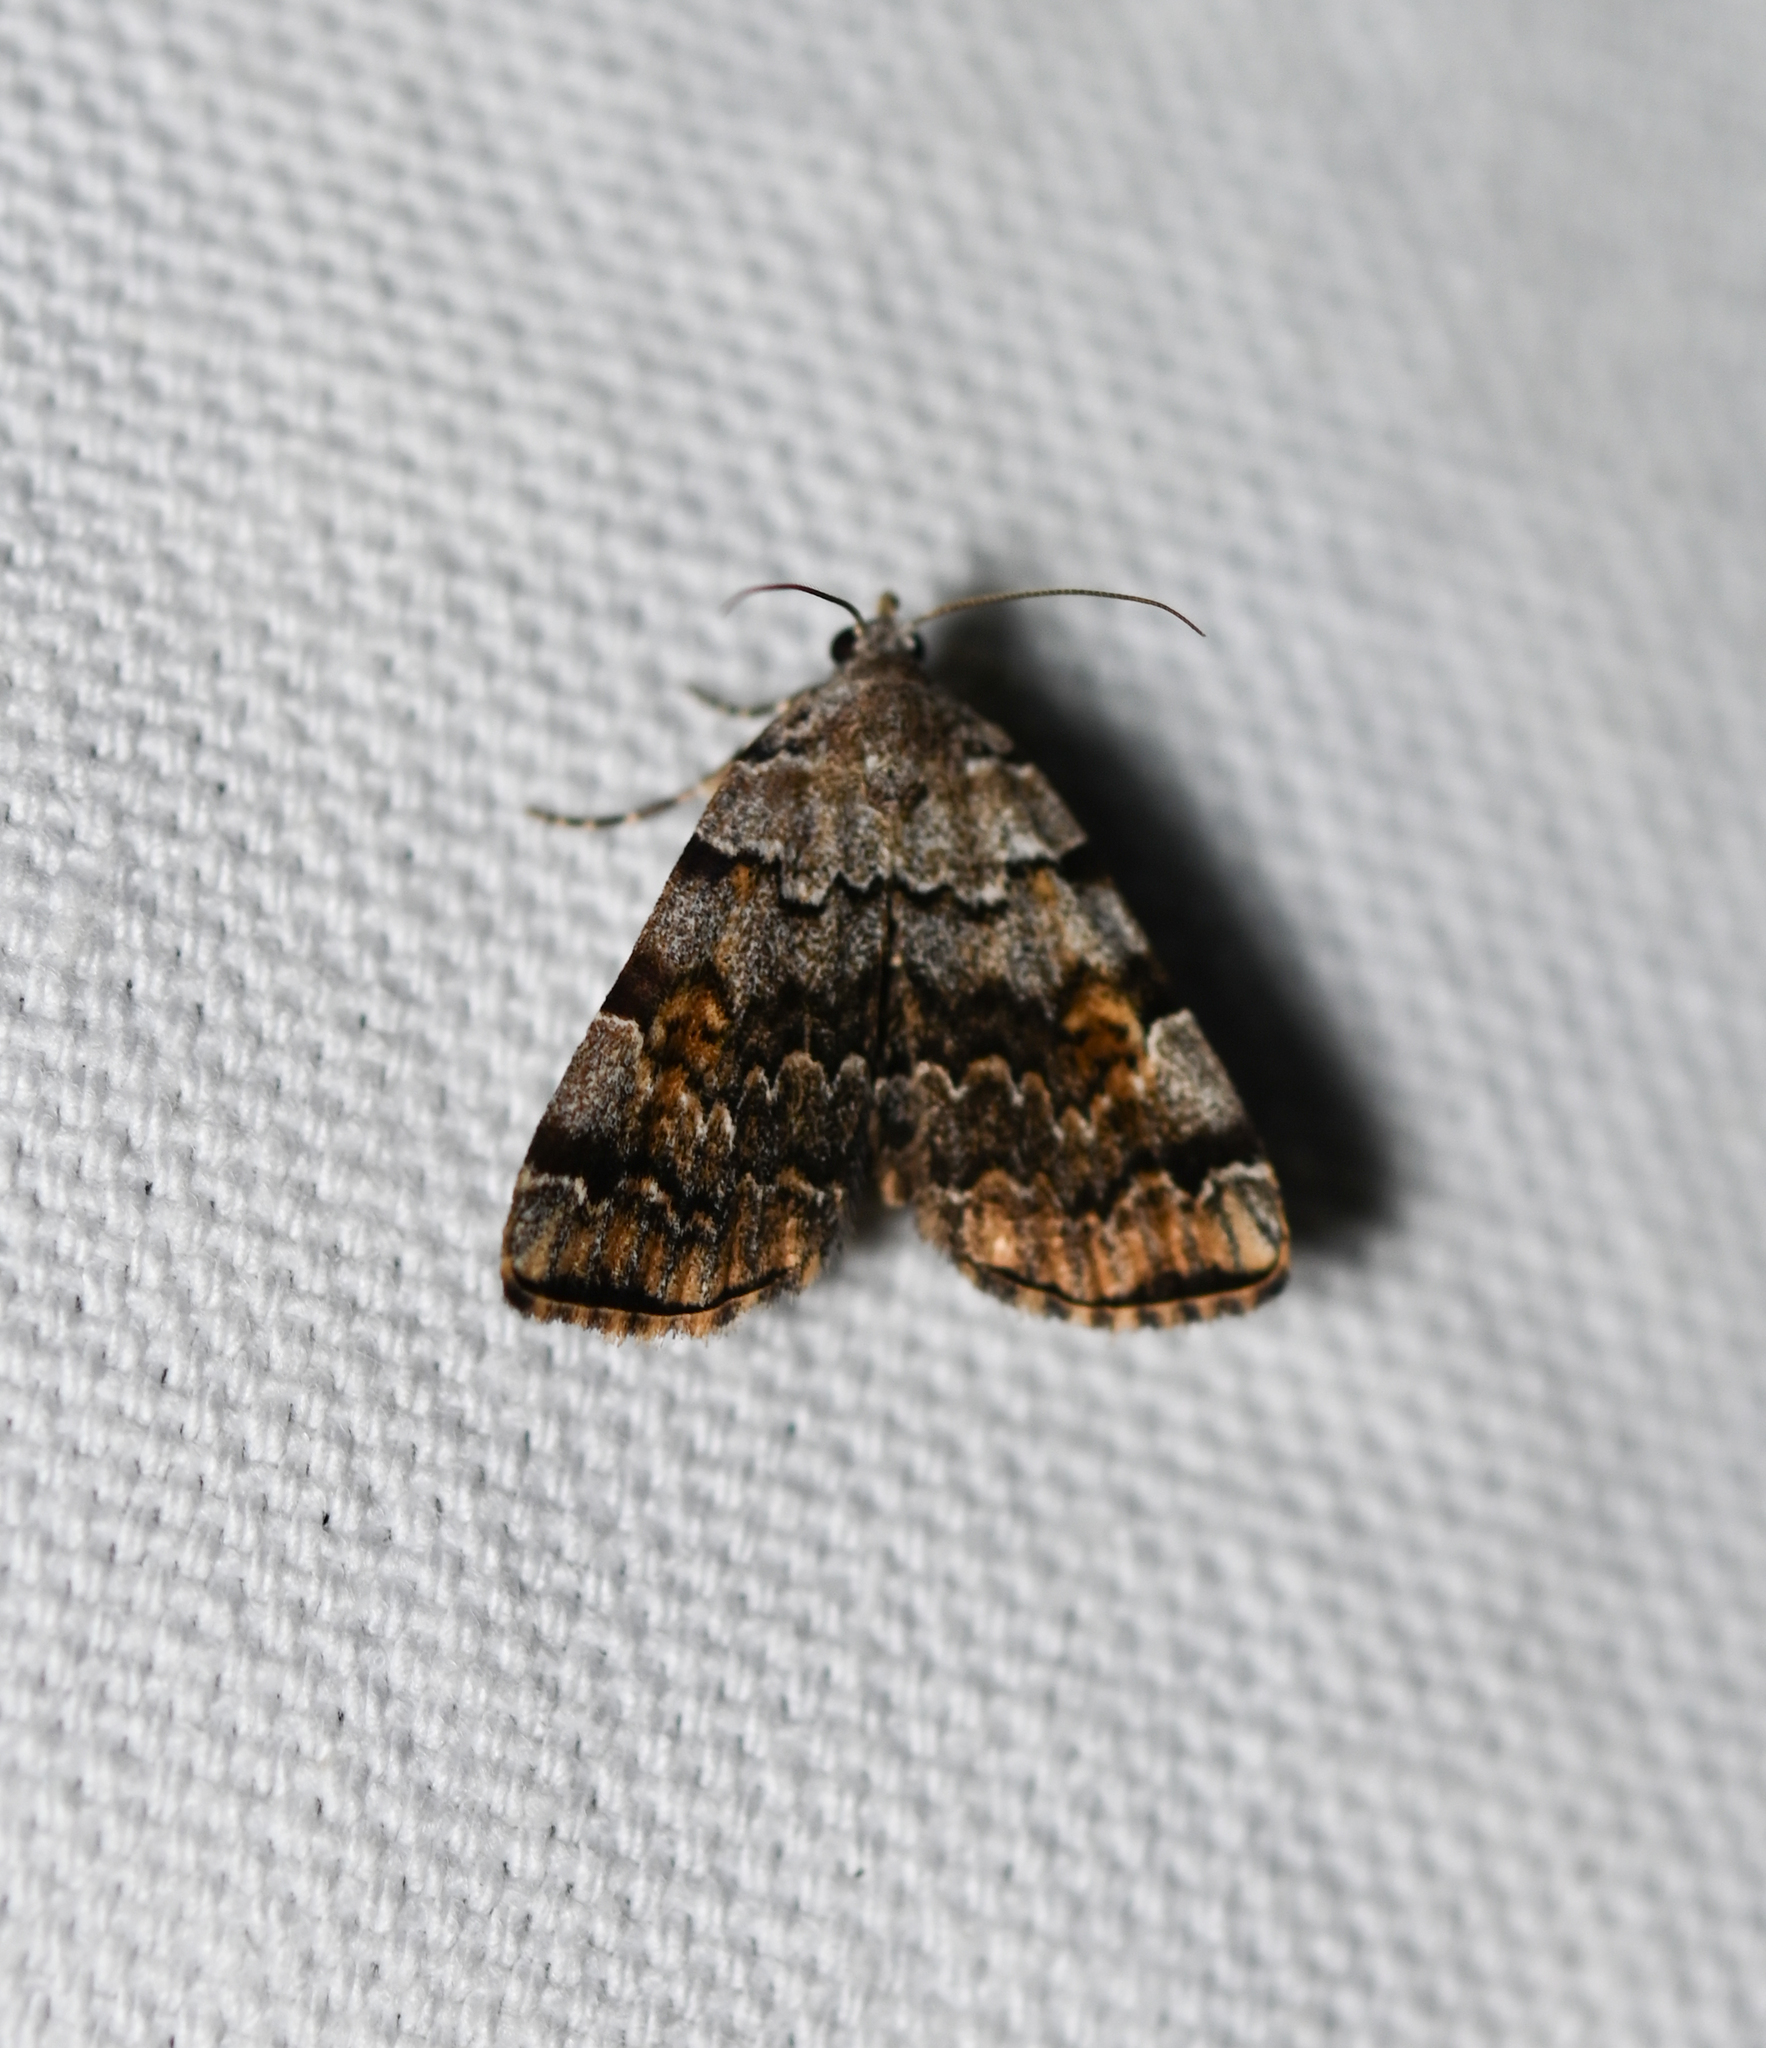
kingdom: Animalia
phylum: Arthropoda
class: Insecta
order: Lepidoptera
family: Erebidae
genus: Idia
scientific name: Idia americalis
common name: American idia moth
